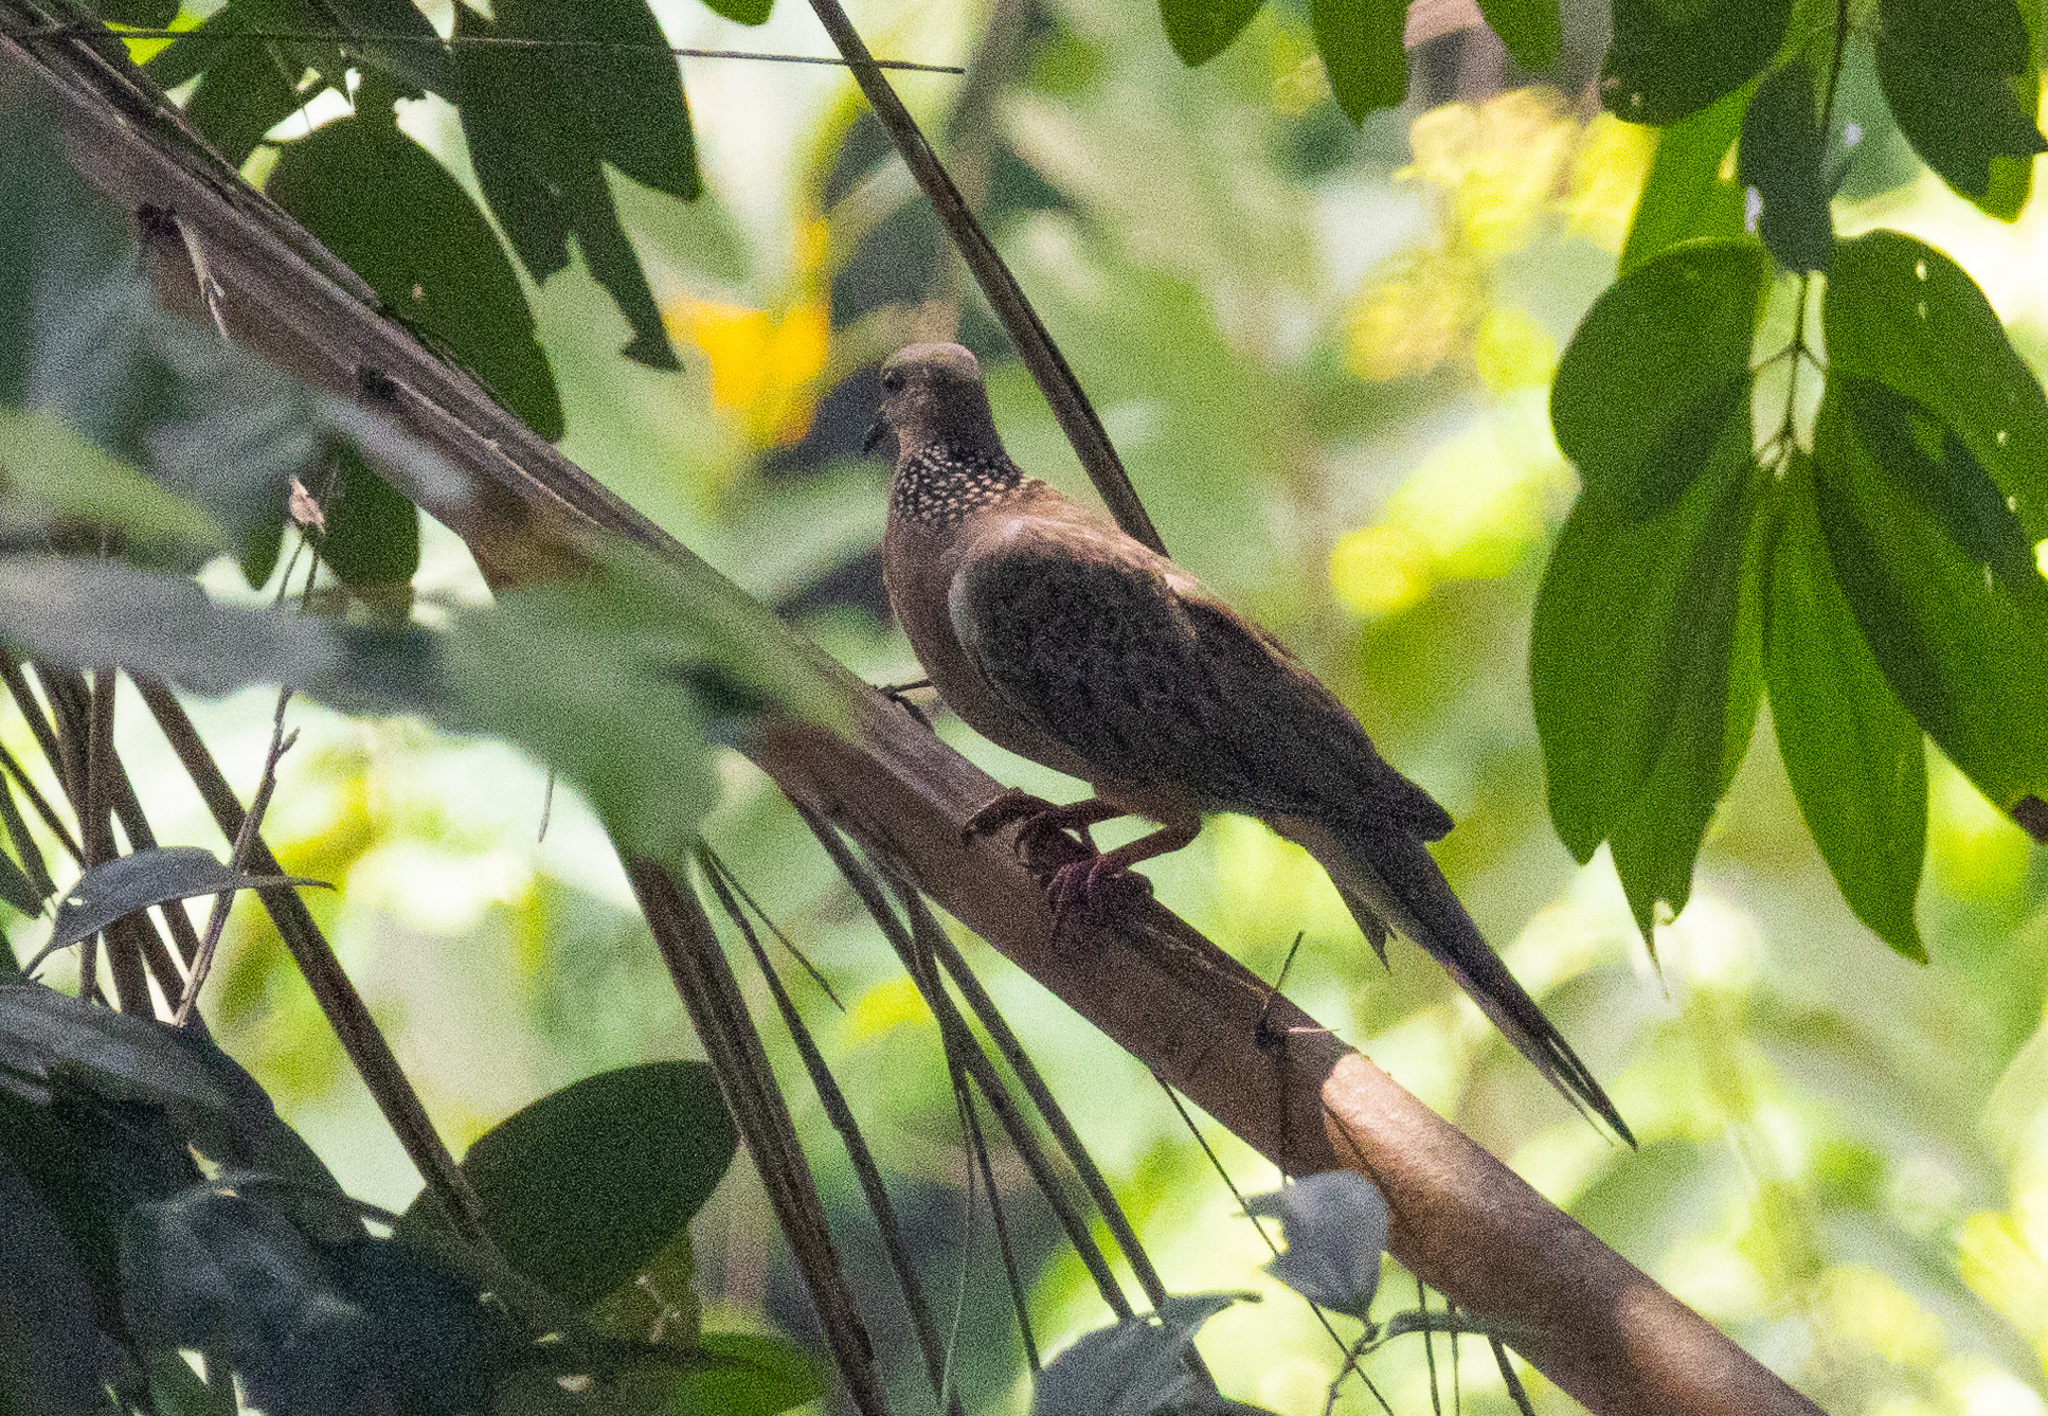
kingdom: Animalia
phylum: Chordata
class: Aves
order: Columbiformes
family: Columbidae
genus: Spilopelia
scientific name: Spilopelia chinensis
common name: Spotted dove
